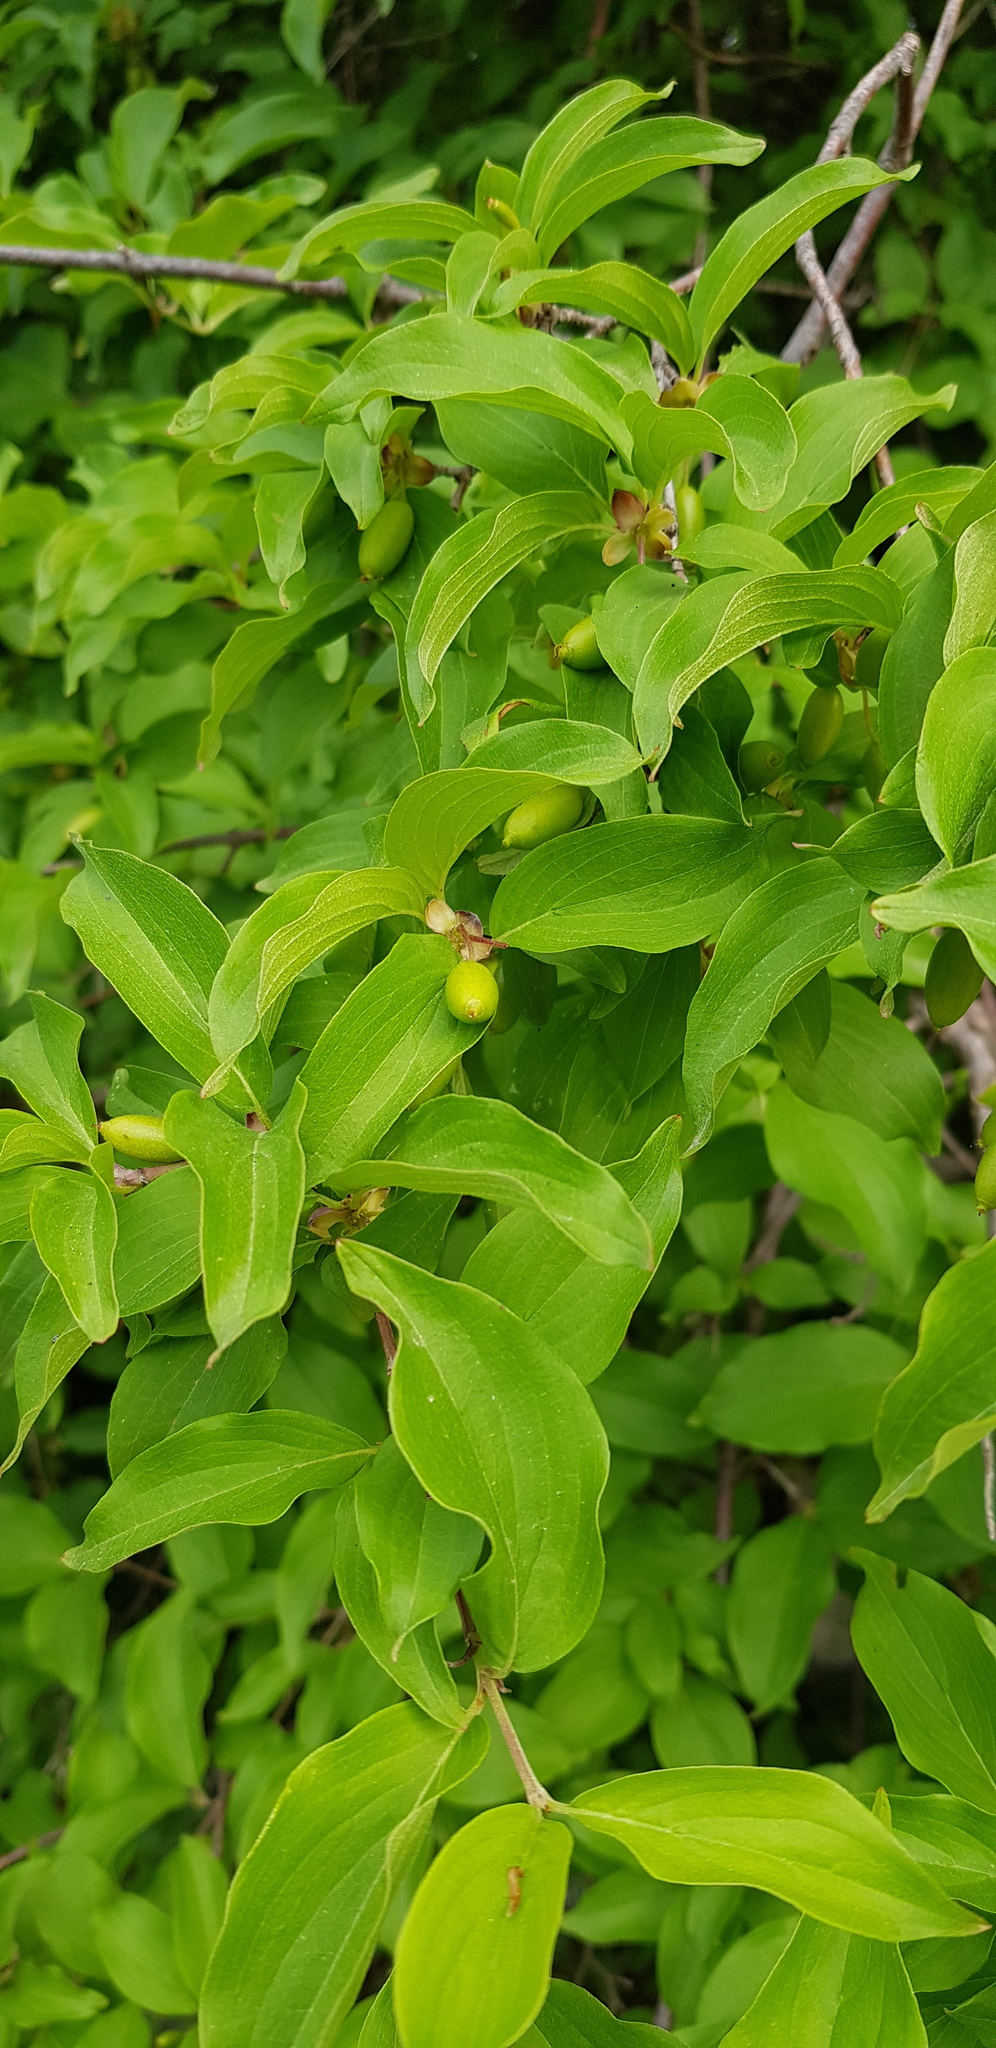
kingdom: Plantae
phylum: Tracheophyta
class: Magnoliopsida
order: Cornales
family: Cornaceae
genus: Cornus
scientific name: Cornus mas
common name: Cornelian-cherry
